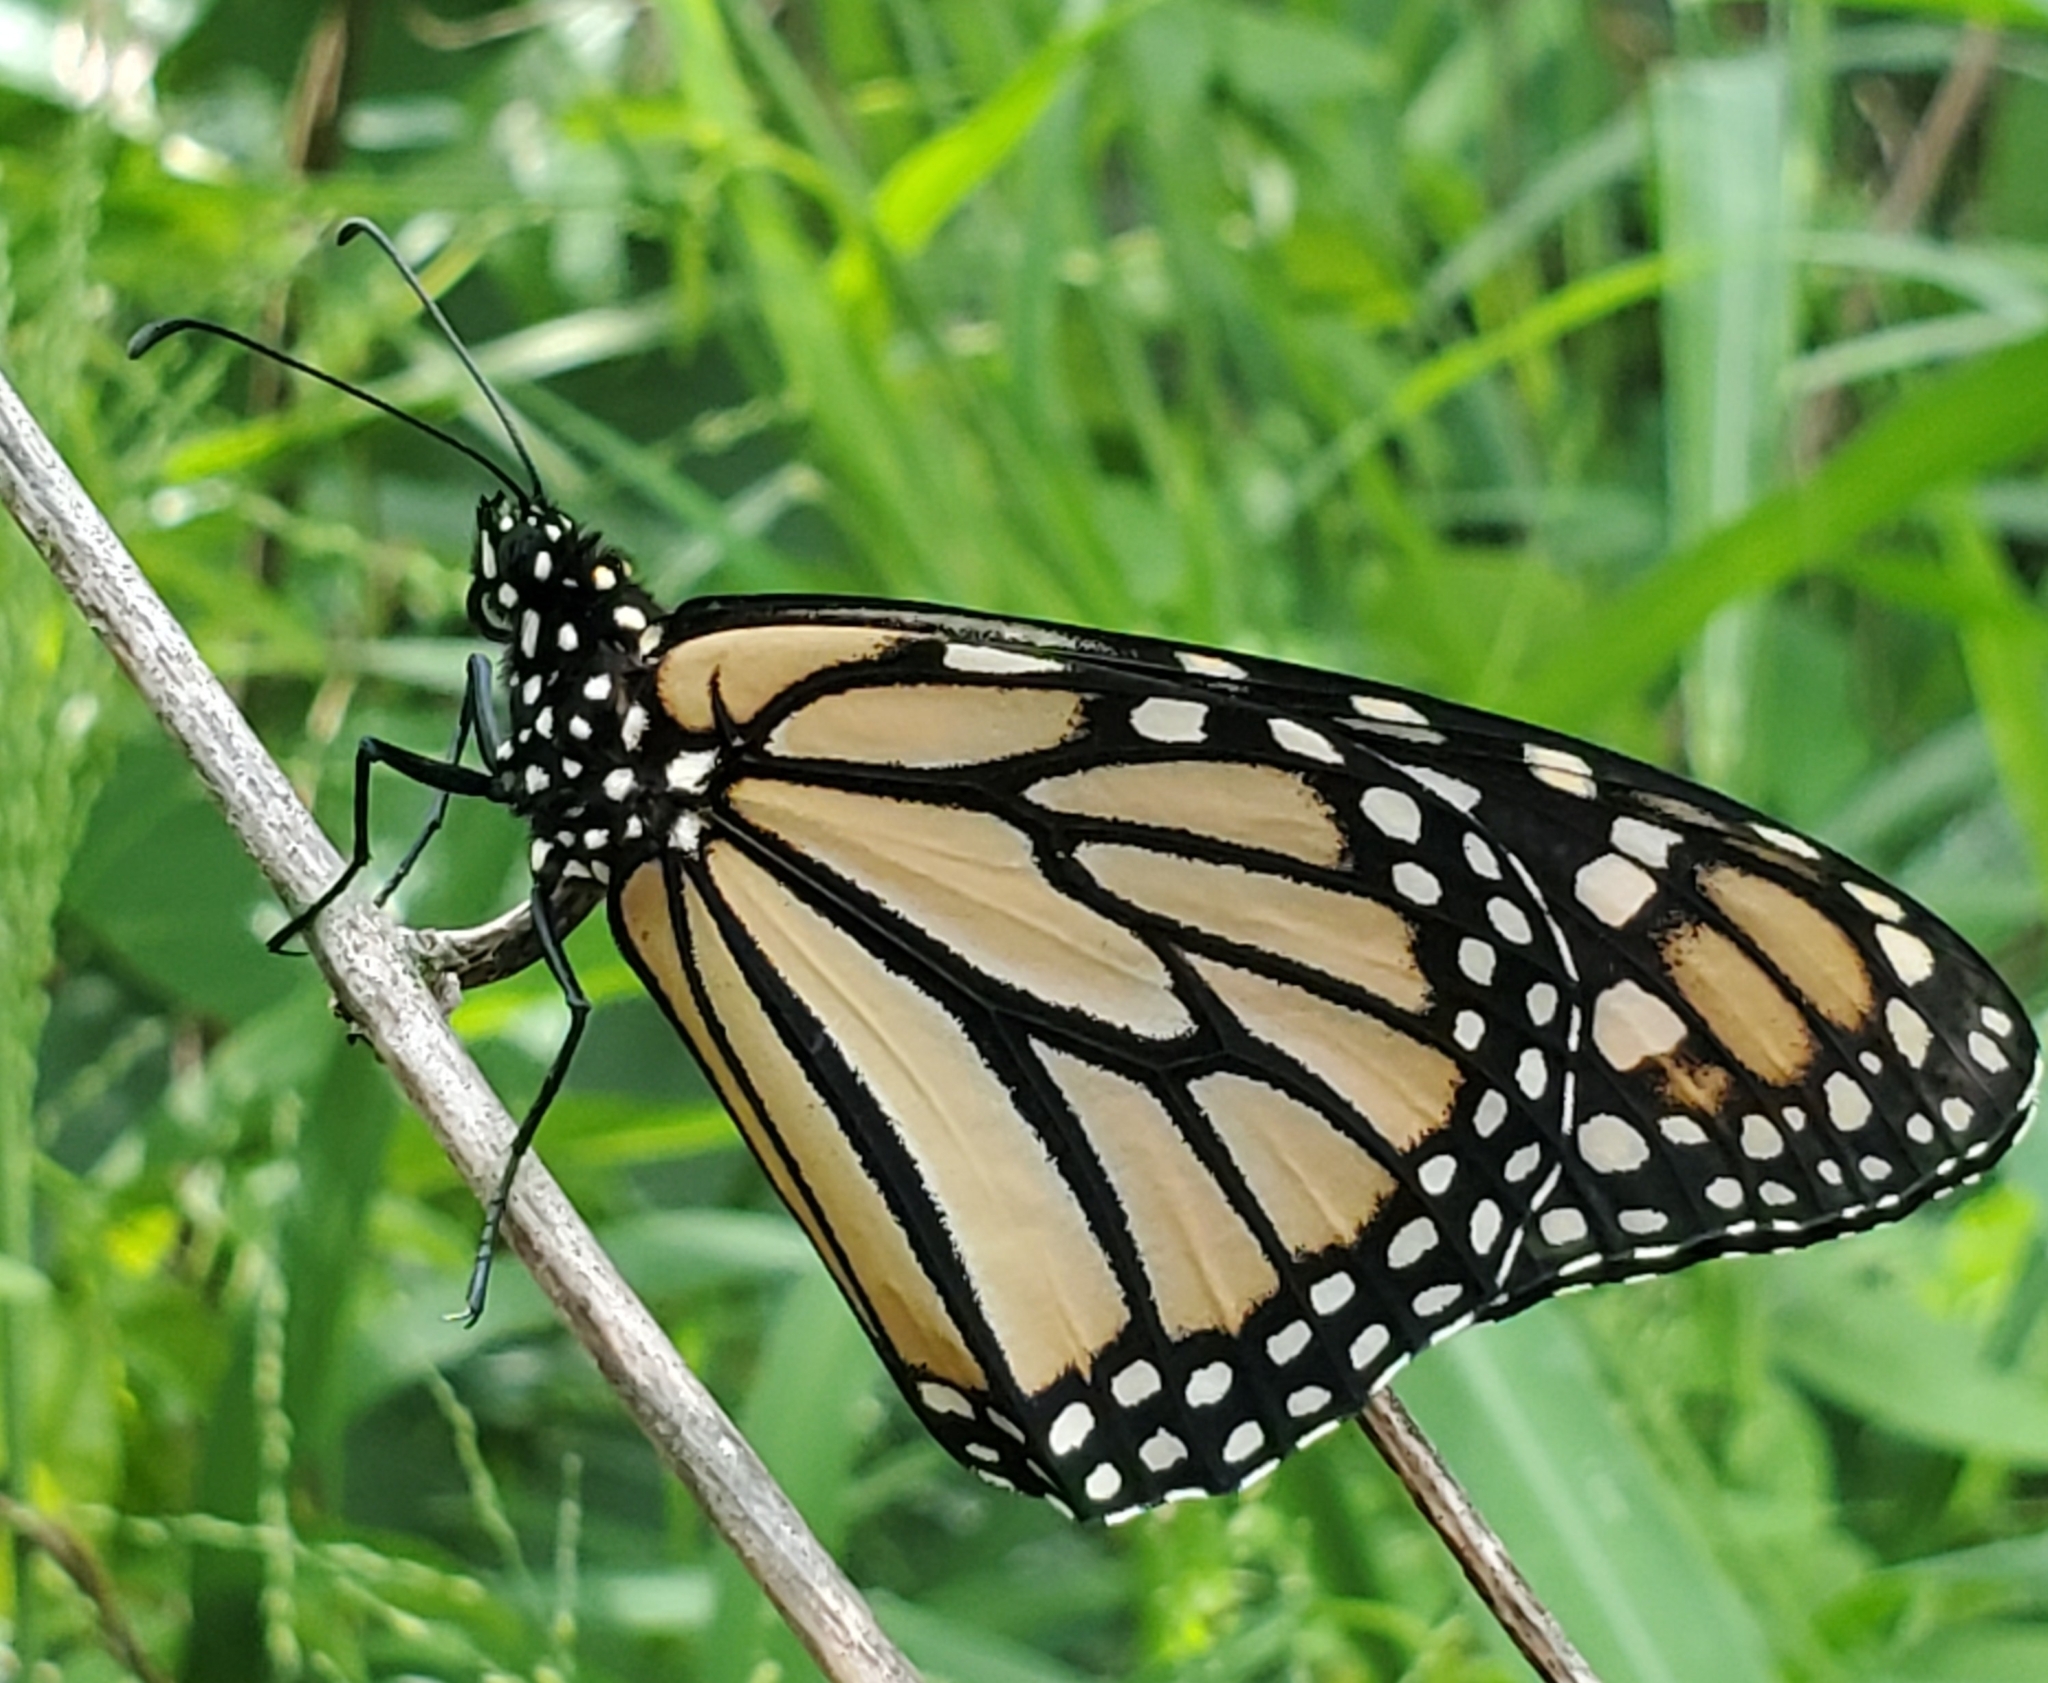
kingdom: Animalia
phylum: Arthropoda
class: Insecta
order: Lepidoptera
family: Nymphalidae
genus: Danaus
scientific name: Danaus plexippus
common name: Monarch
